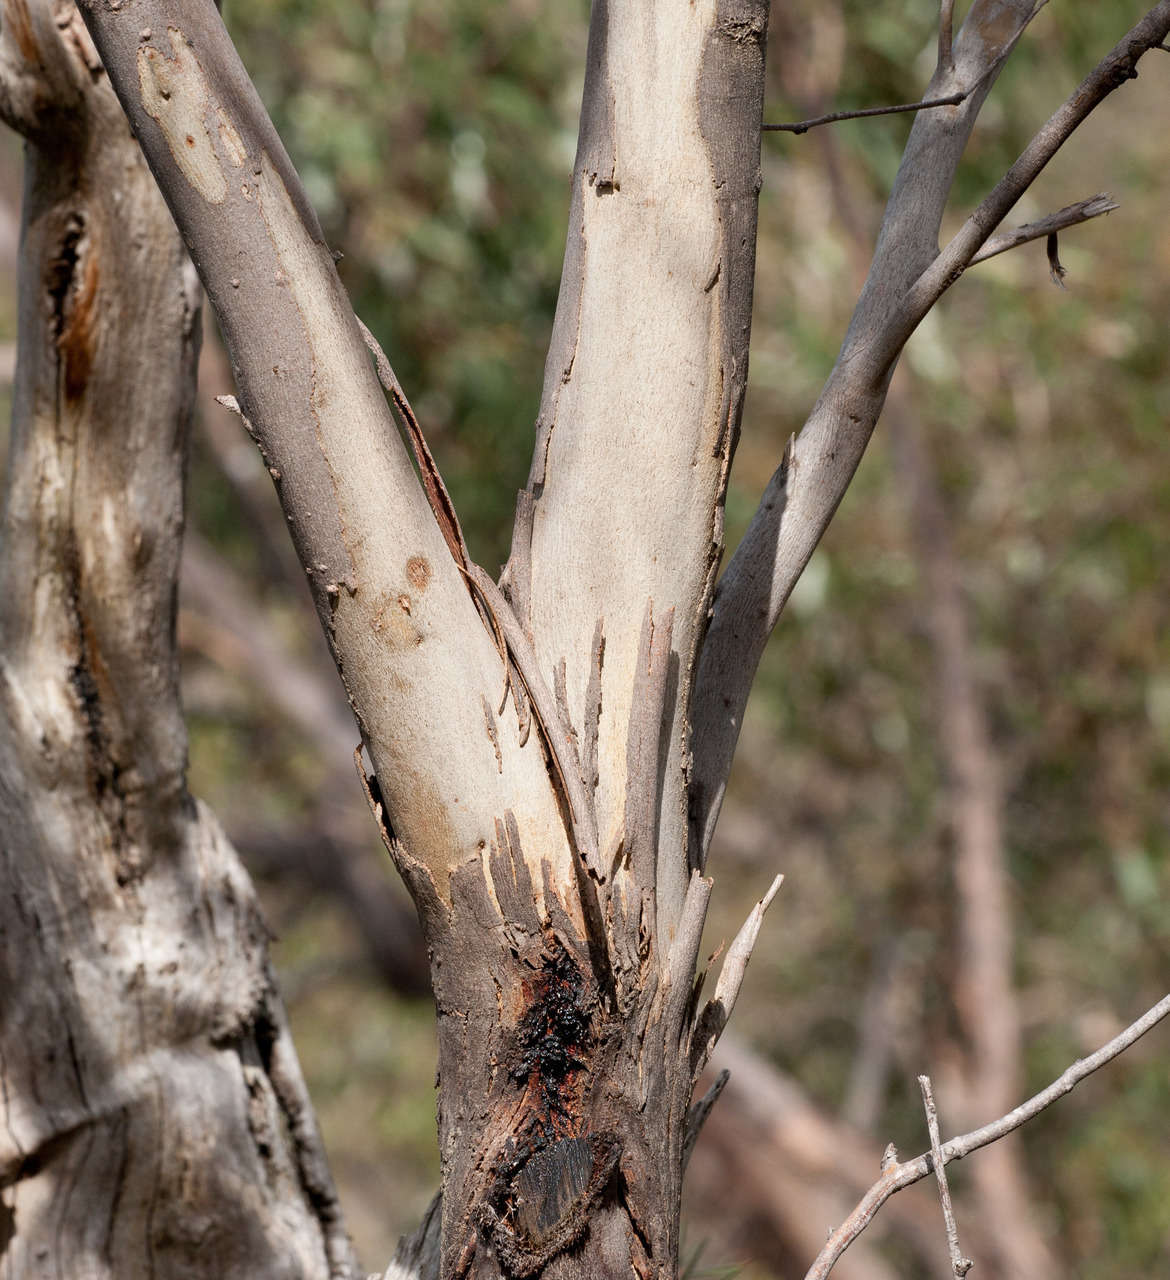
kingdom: Plantae
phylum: Tracheophyta
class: Magnoliopsida
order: Myrtales
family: Myrtaceae
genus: Eucalyptus
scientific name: Eucalyptus falciformis
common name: Grampians peppermint
